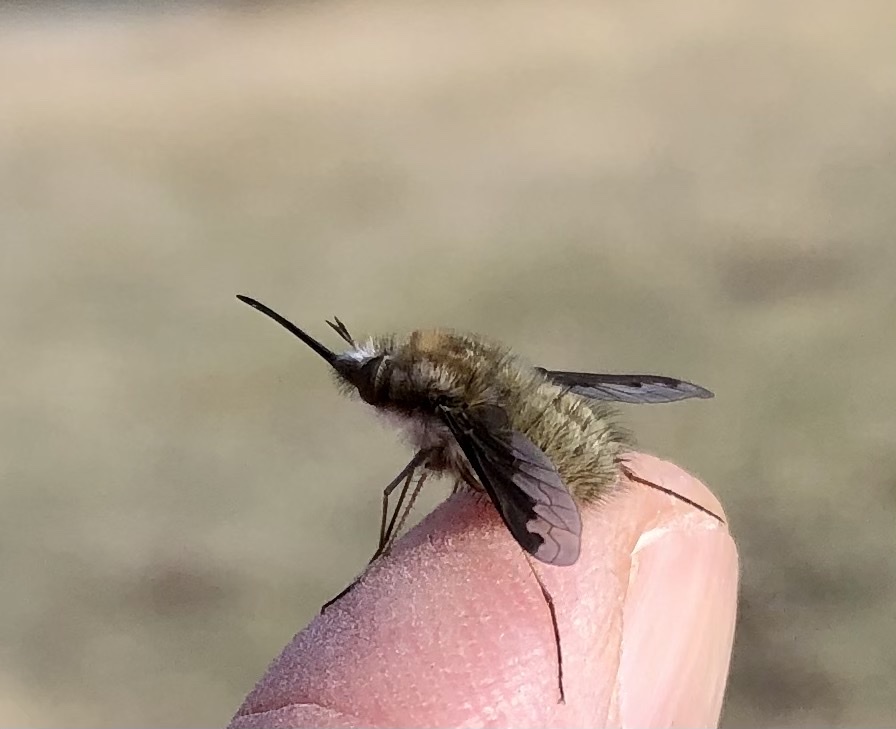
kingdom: Animalia
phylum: Arthropoda
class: Insecta
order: Diptera
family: Bombyliidae
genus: Bombylius
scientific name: Bombylius major
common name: Bee fly
